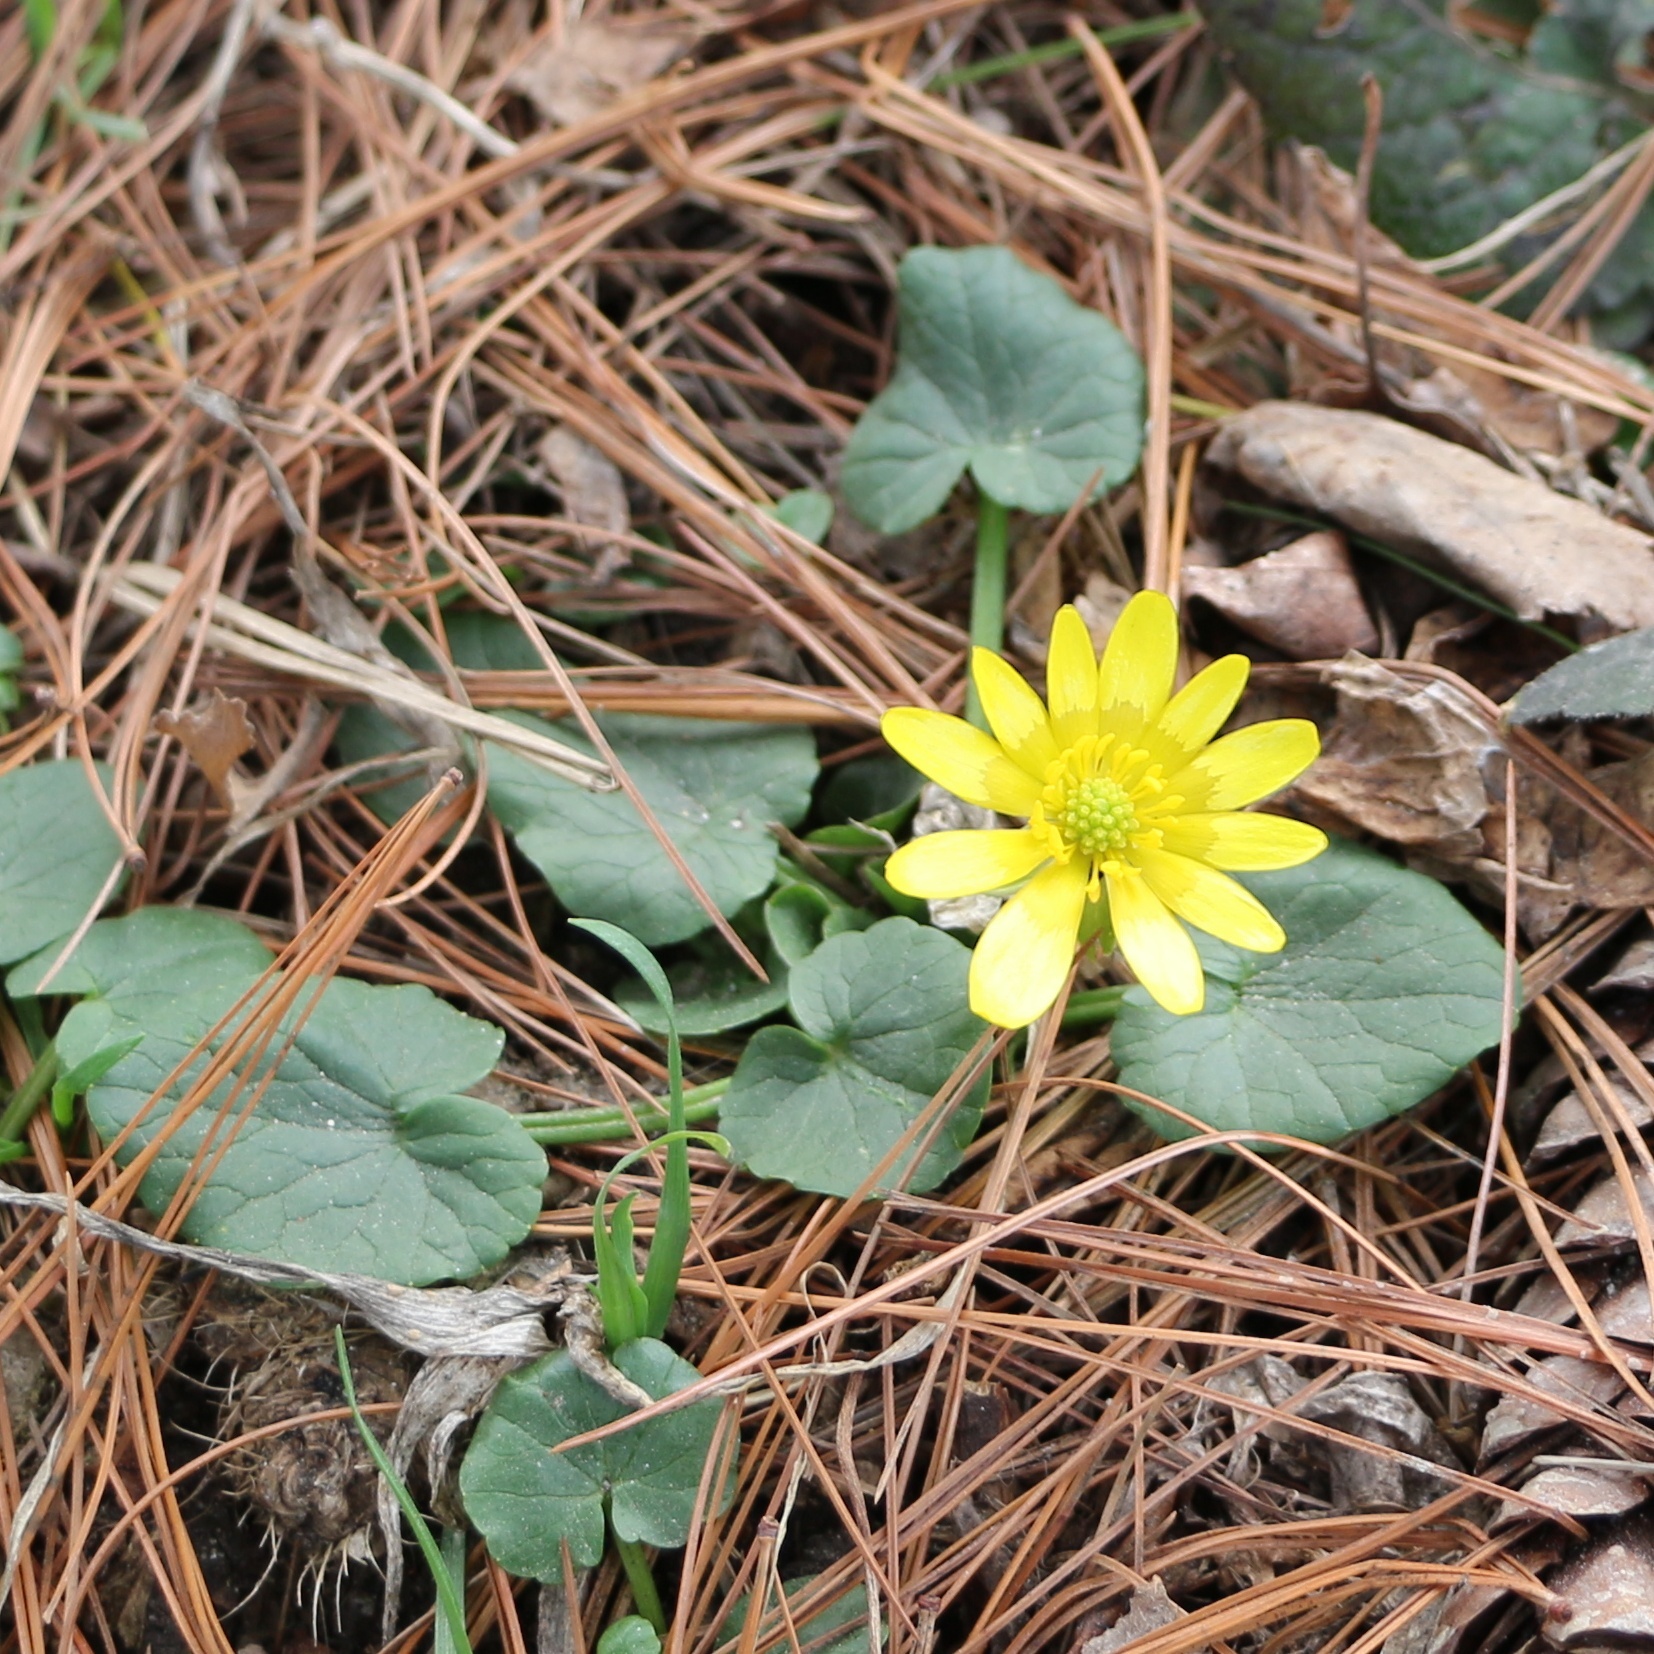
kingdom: Plantae
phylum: Tracheophyta
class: Magnoliopsida
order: Ranunculales
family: Ranunculaceae
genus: Ficaria
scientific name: Ficaria verna
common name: Lesser celandine
